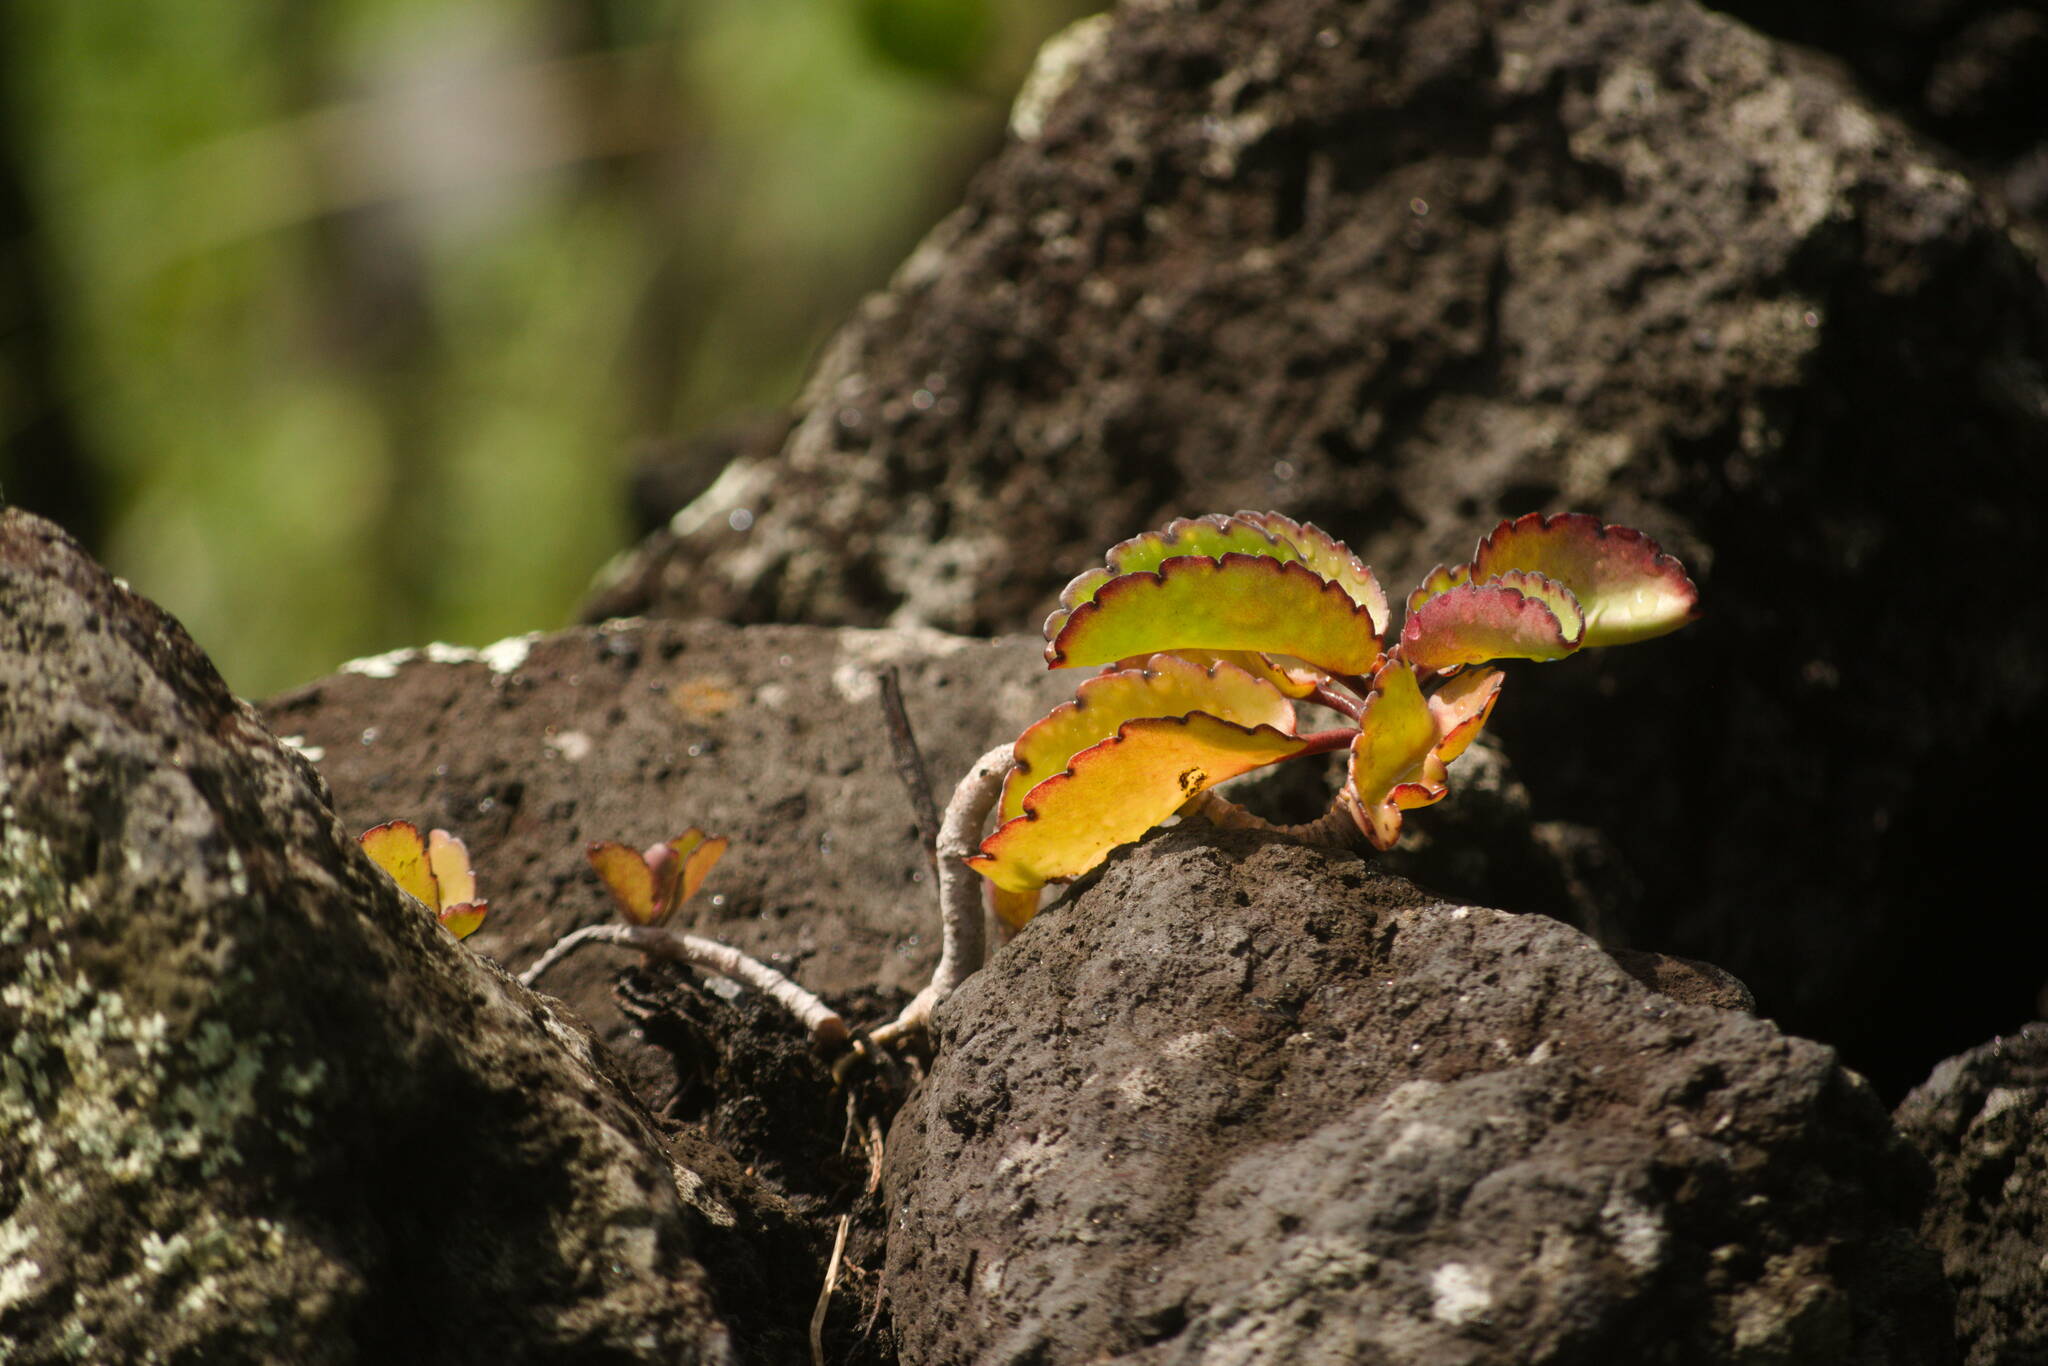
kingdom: Plantae
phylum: Tracheophyta
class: Magnoliopsida
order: Saxifragales
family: Crassulaceae
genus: Kalanchoe
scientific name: Kalanchoe pinnata
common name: Cathedral bells
